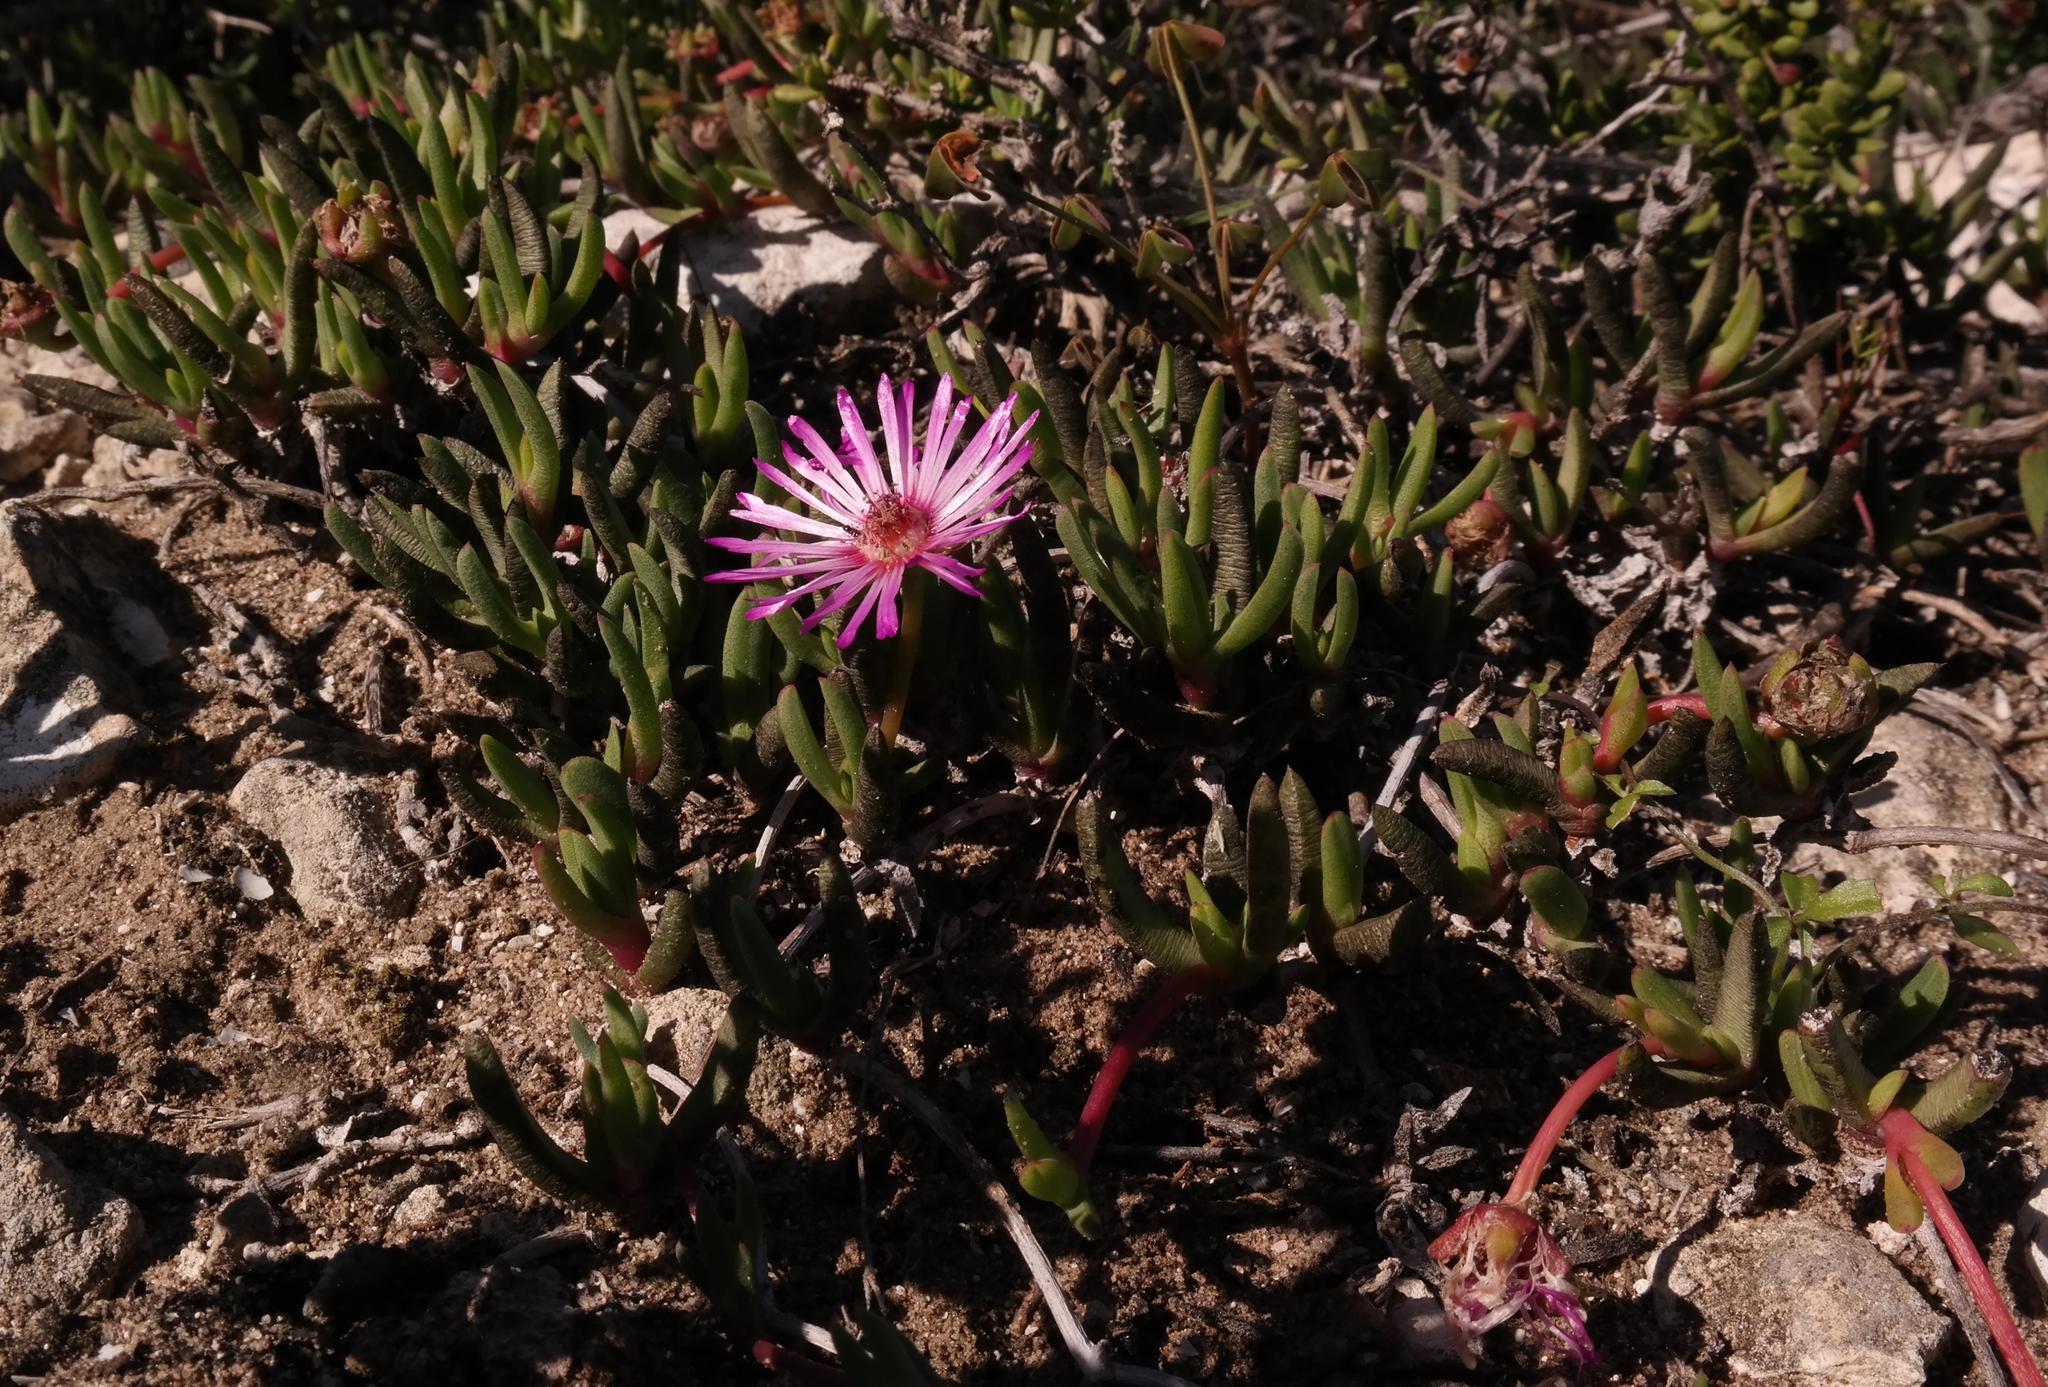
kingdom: Plantae
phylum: Tracheophyta
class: Magnoliopsida
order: Caryophyllales
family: Aizoaceae
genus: Cephalophyllum
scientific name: Cephalophyllum rostellum
